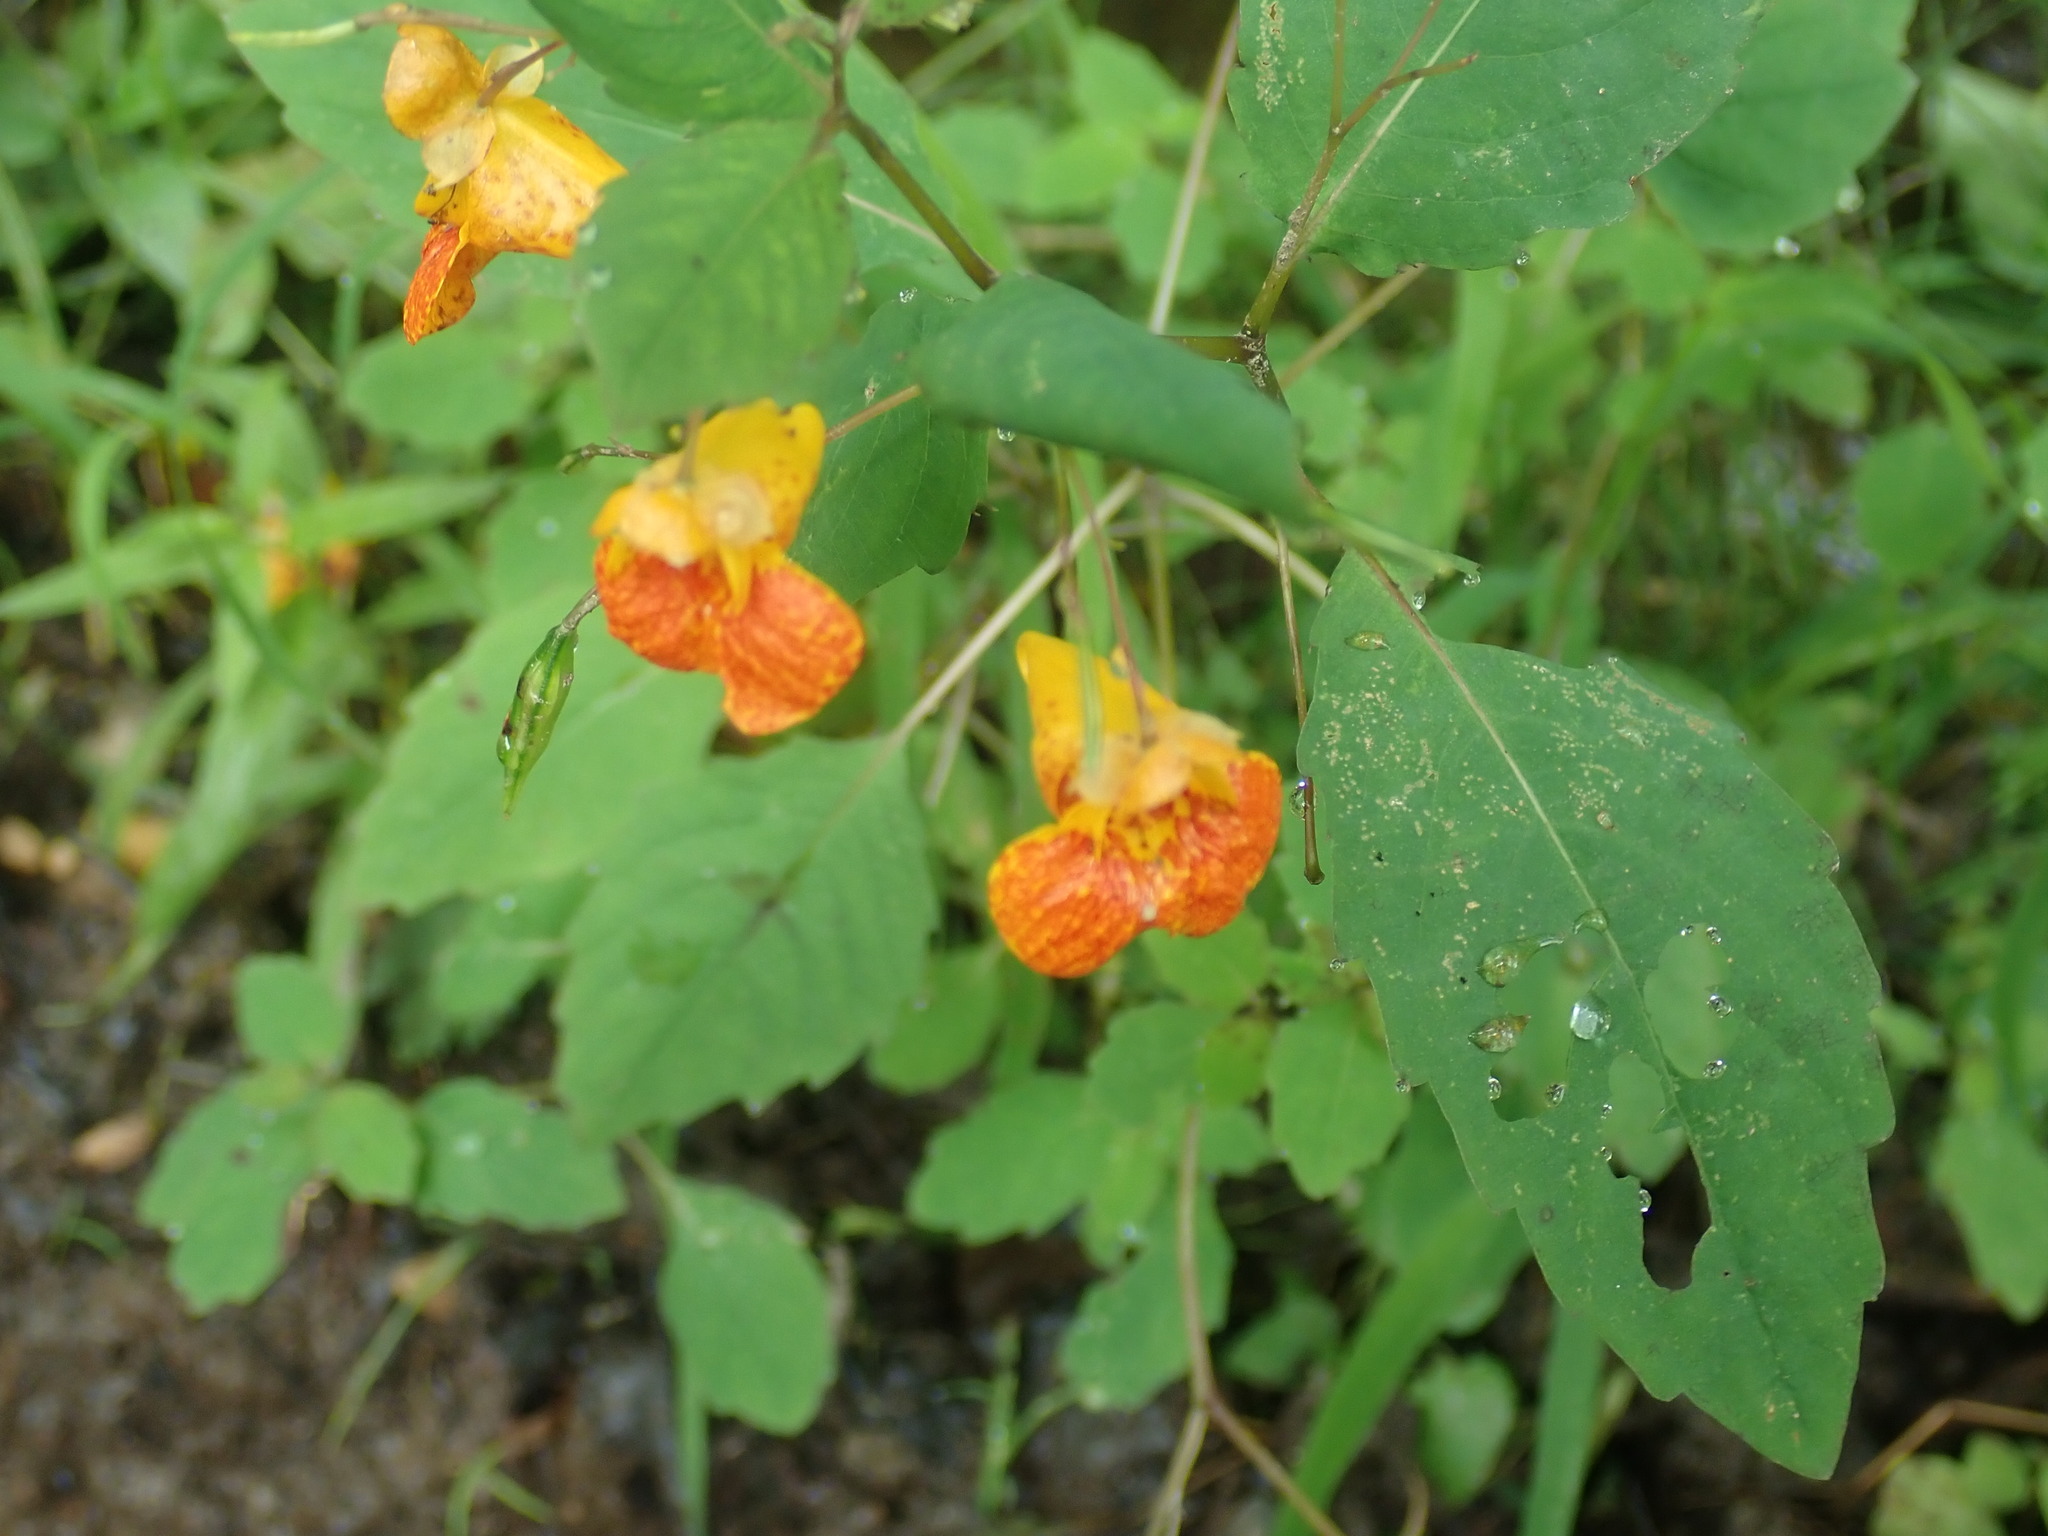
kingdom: Plantae
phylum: Tracheophyta
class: Magnoliopsida
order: Ericales
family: Balsaminaceae
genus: Impatiens
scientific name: Impatiens capensis
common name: Orange balsam
